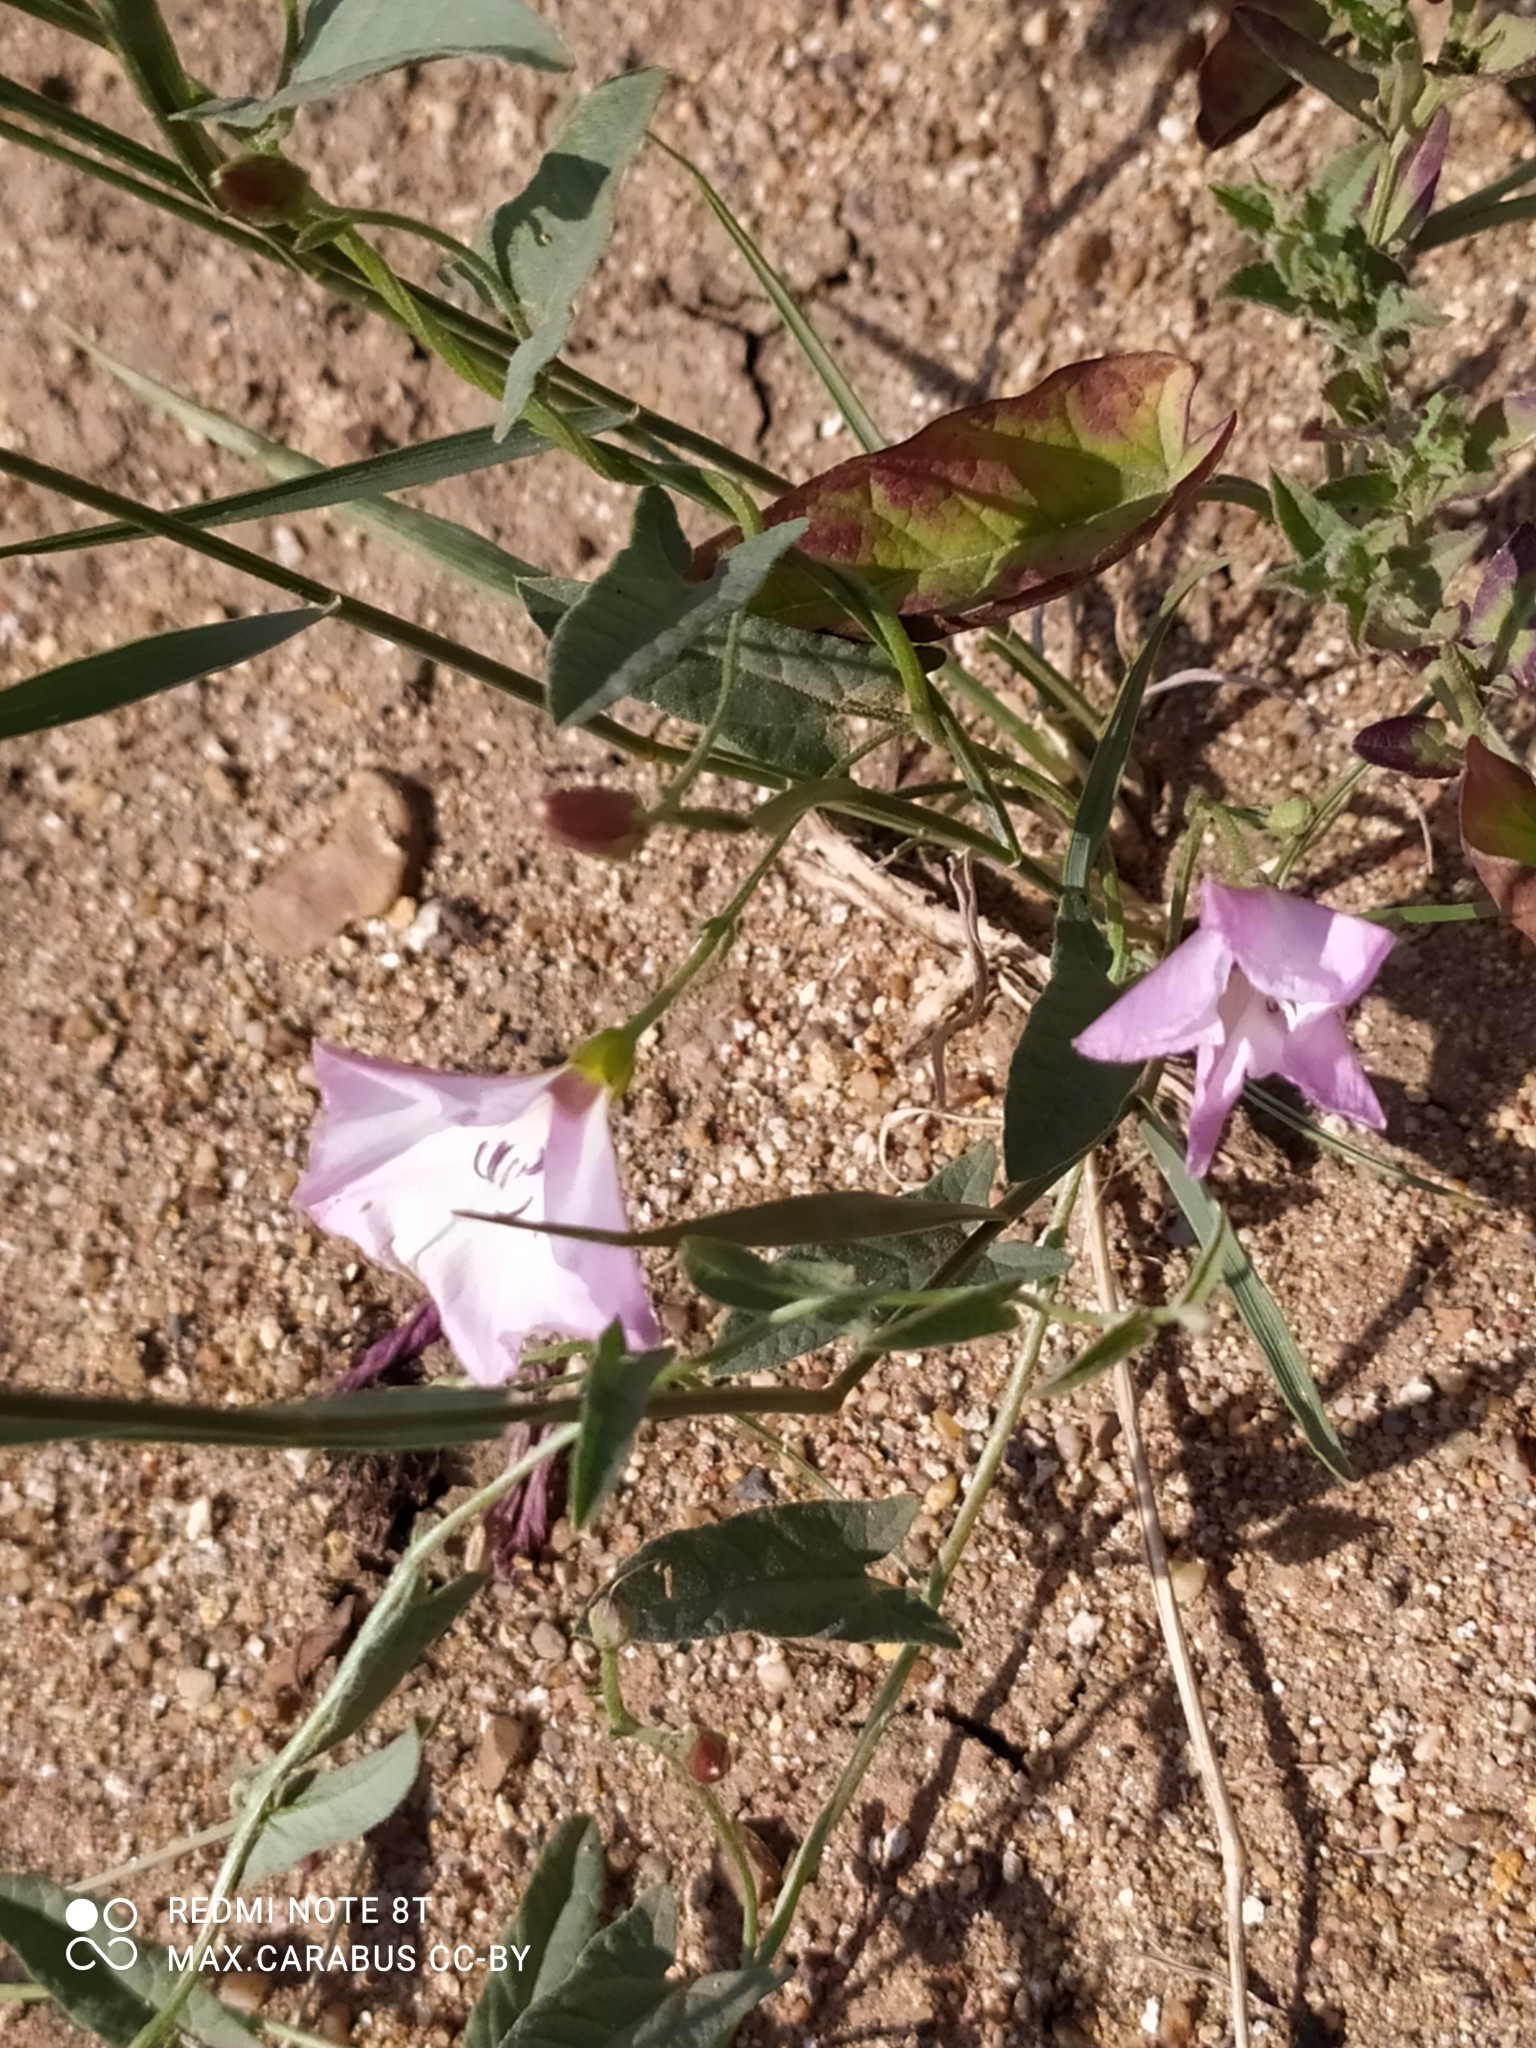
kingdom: Plantae
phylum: Tracheophyta
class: Magnoliopsida
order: Solanales
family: Convolvulaceae
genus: Convolvulus
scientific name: Convolvulus arvensis
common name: Field bindweed
